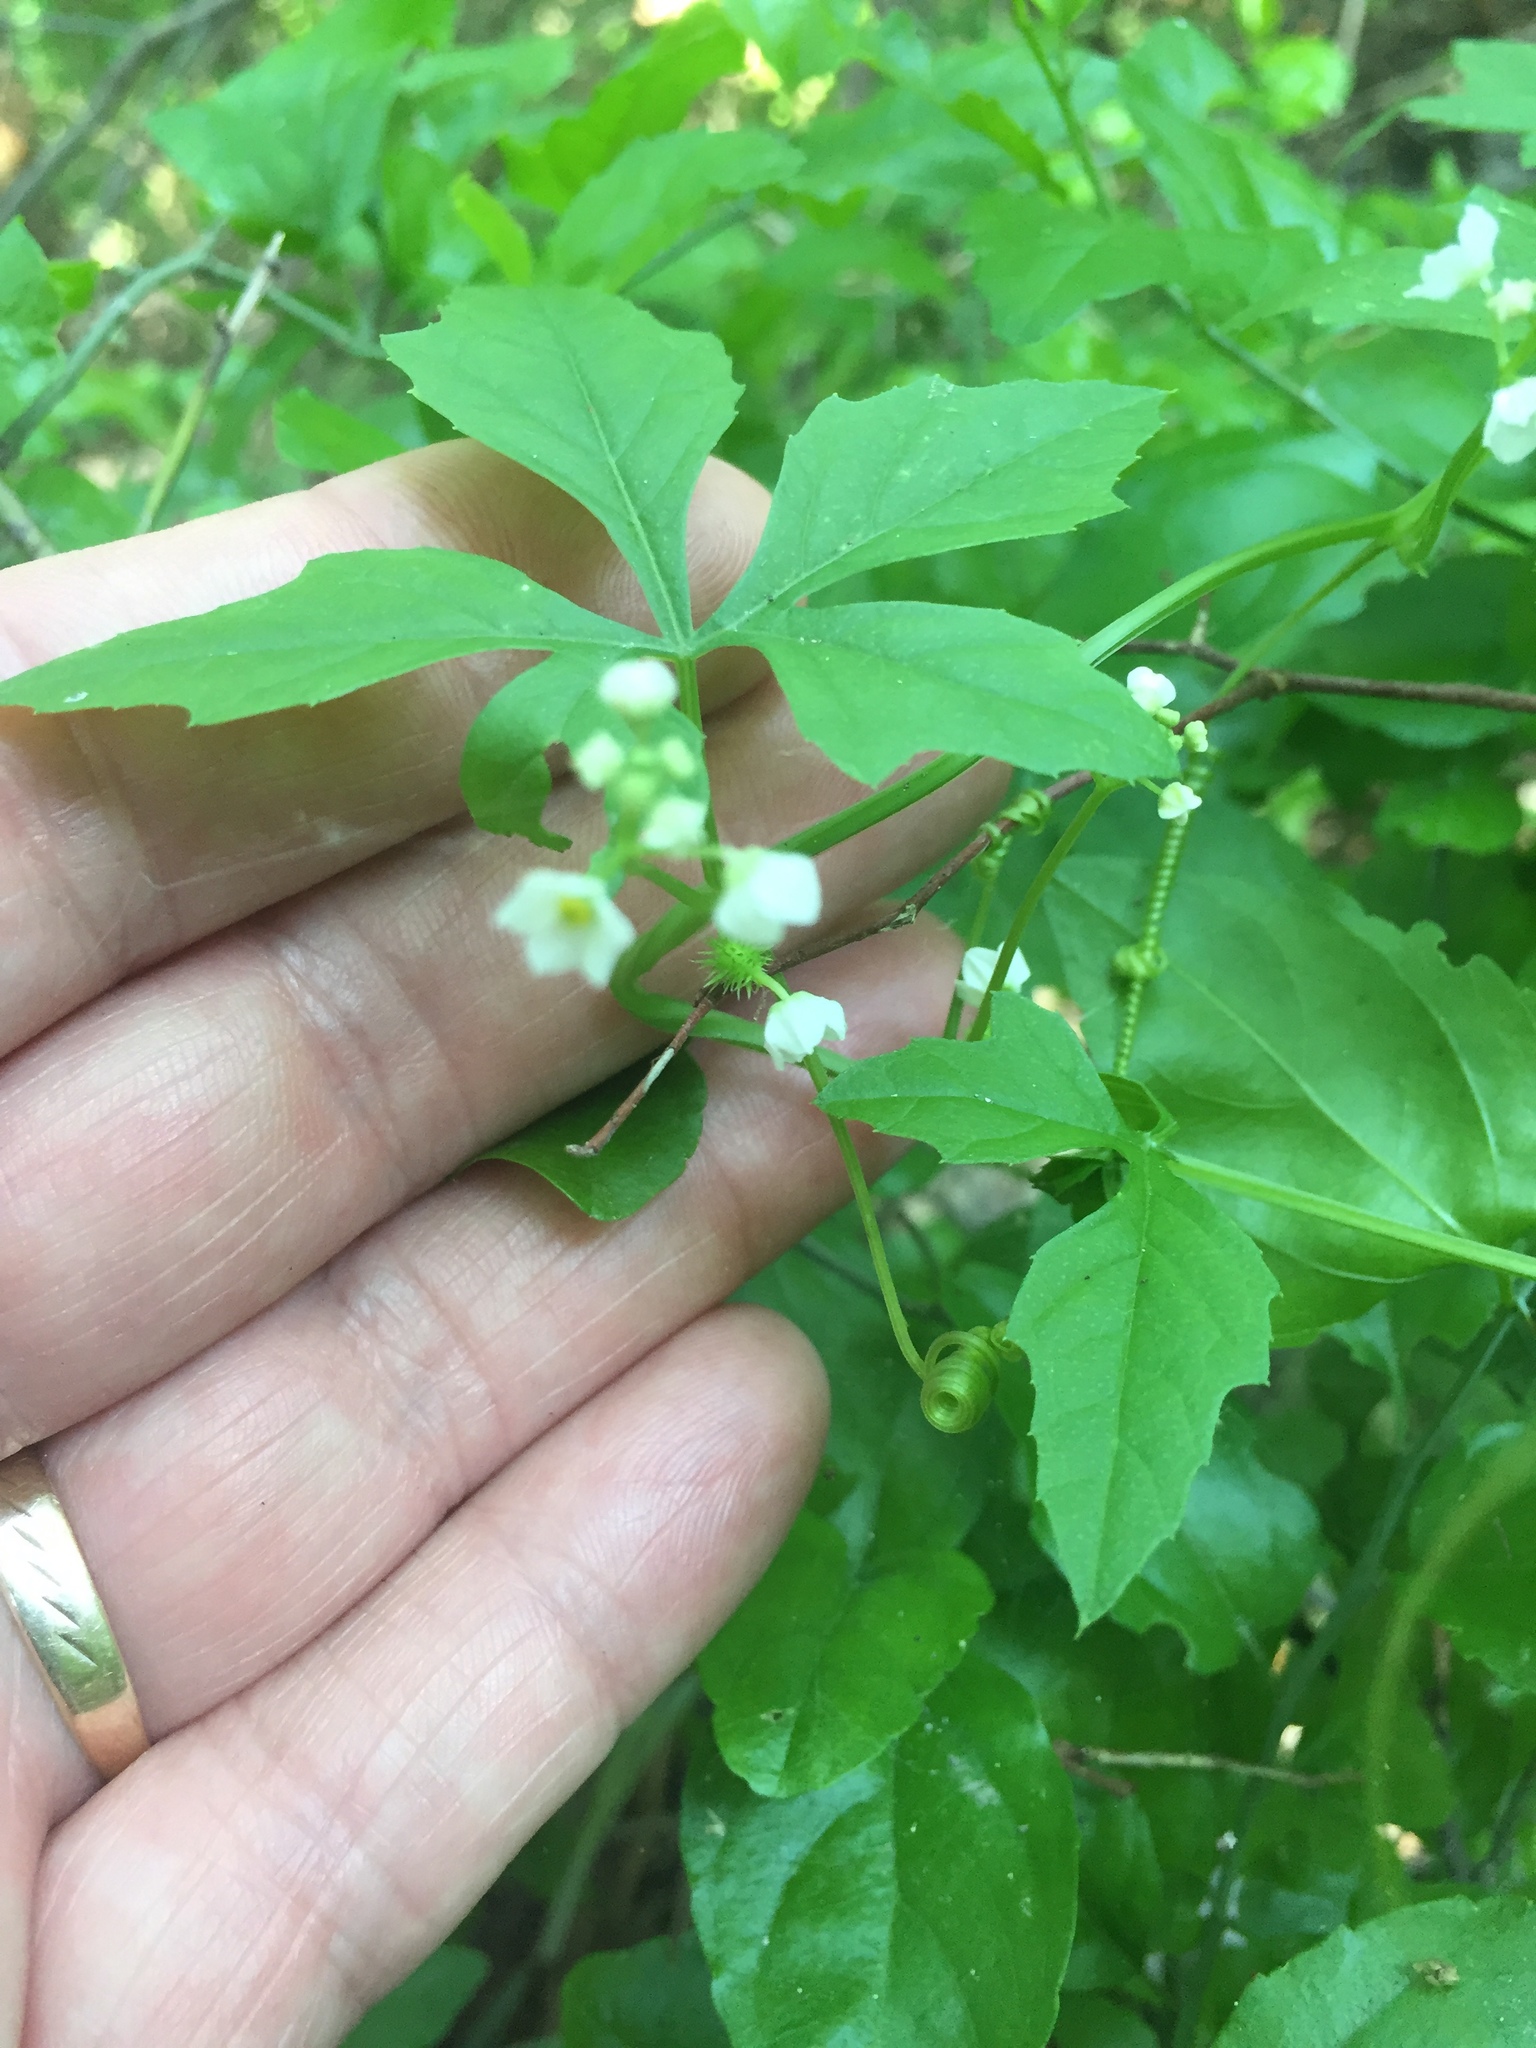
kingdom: Plantae
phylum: Tracheophyta
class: Magnoliopsida
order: Cucurbitales
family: Cucurbitaceae
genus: Cyclanthera
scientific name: Cyclanthera naudiniana
